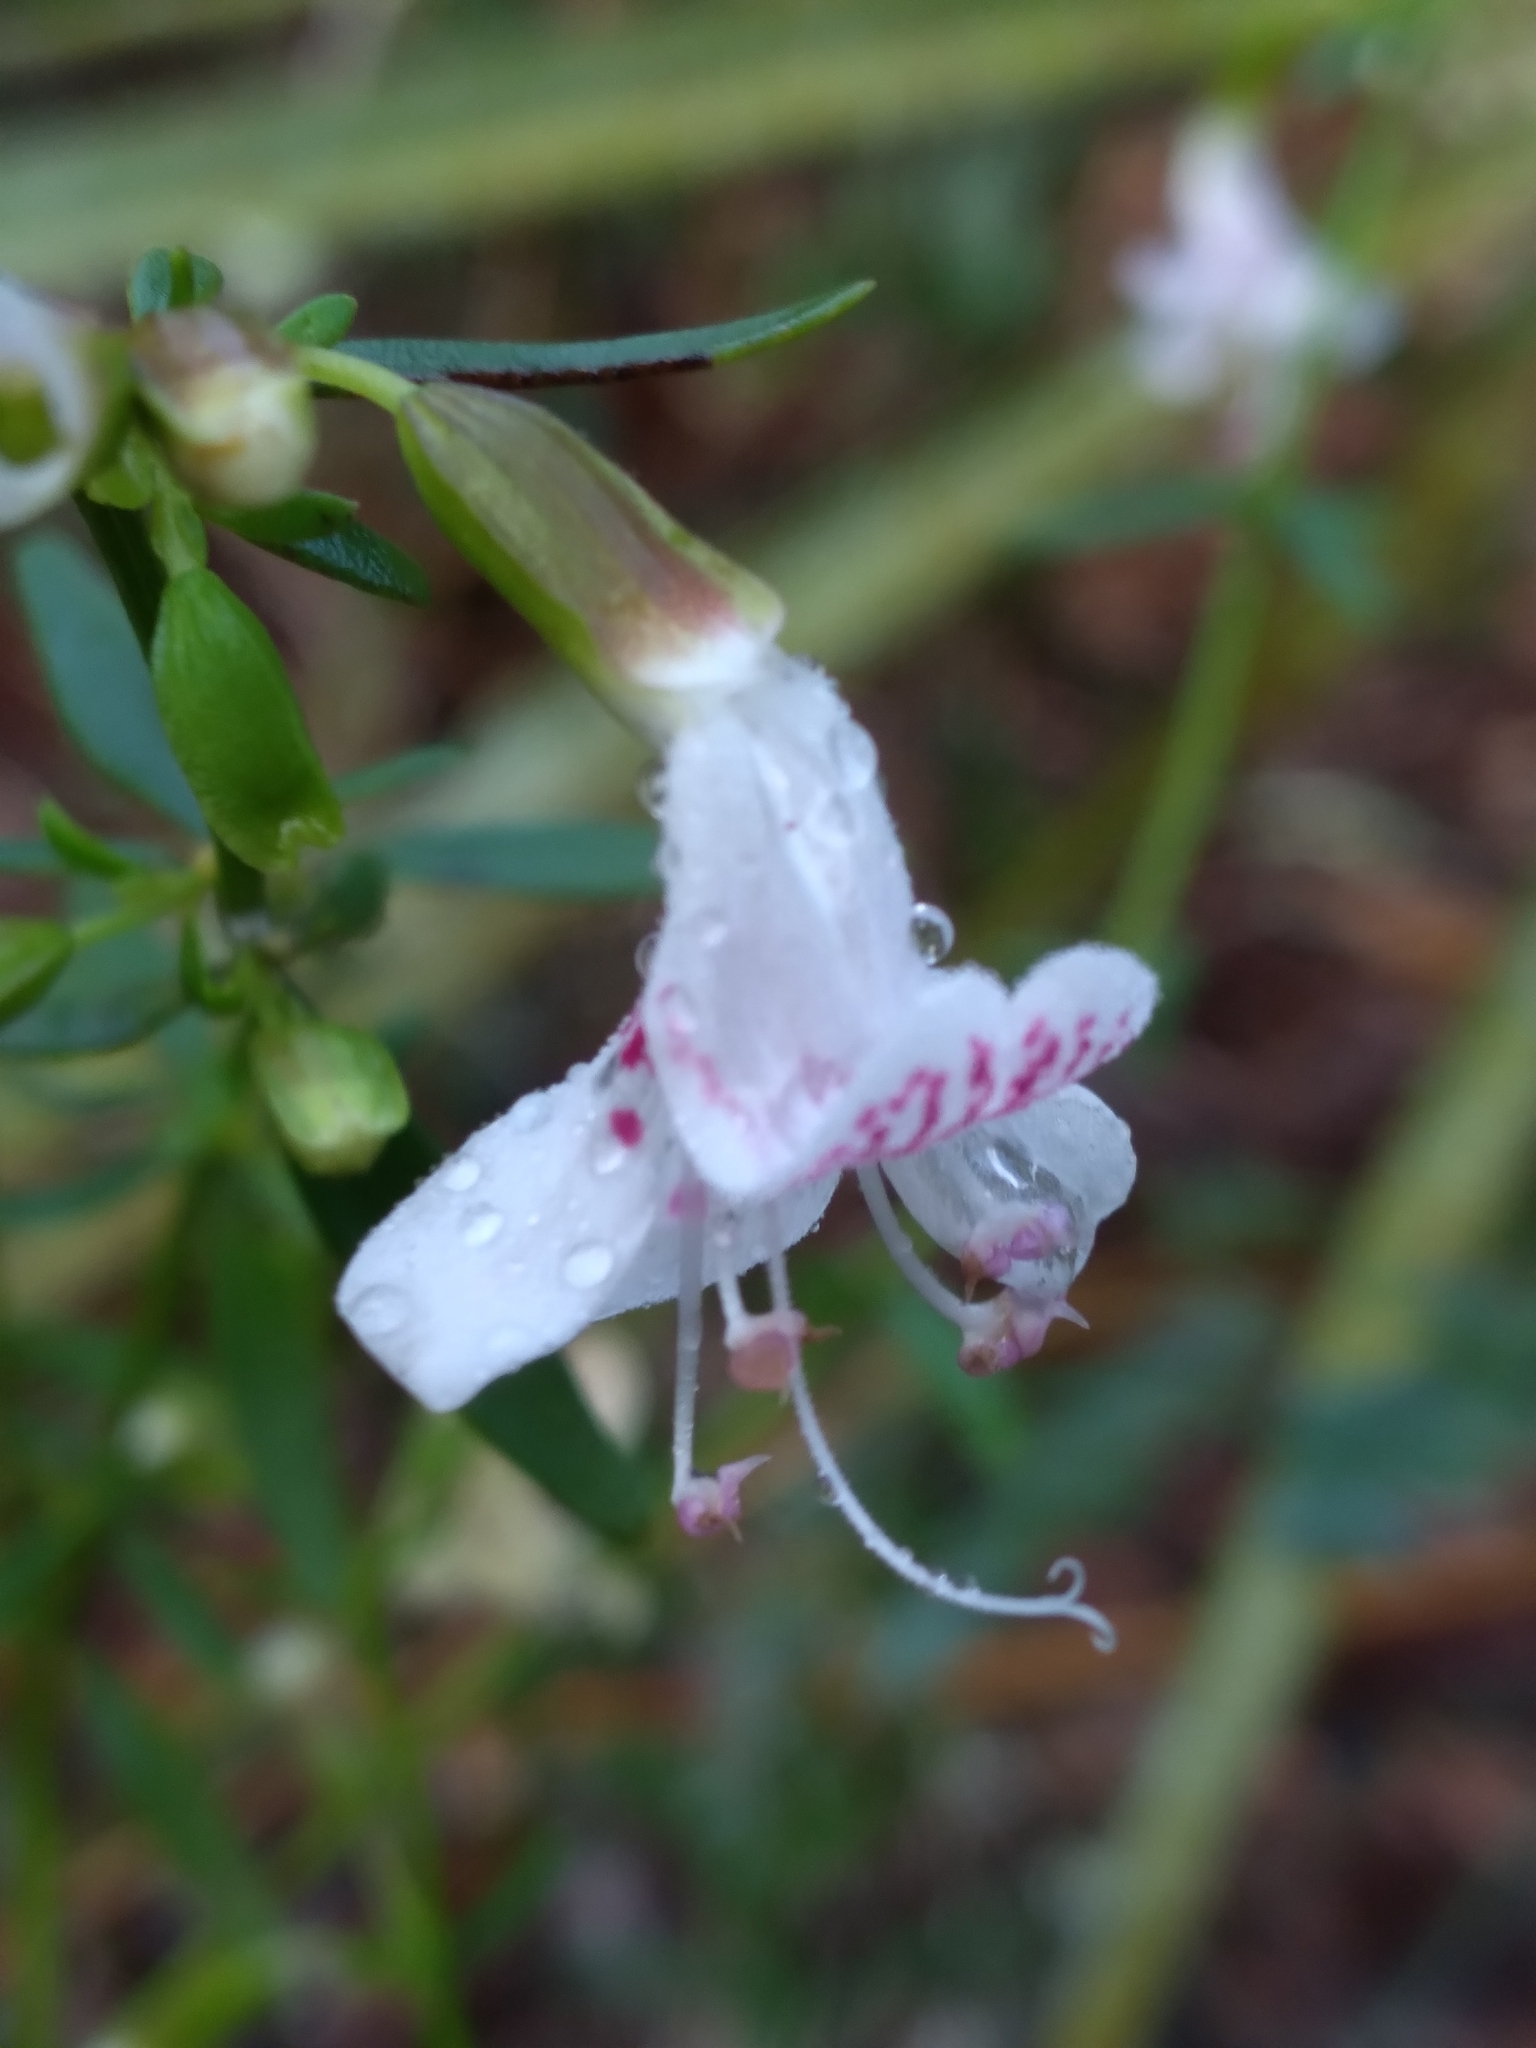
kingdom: Plantae
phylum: Tracheophyta
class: Magnoliopsida
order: Lamiales
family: Lamiaceae
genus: Dicerandra
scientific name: Dicerandra frutescens
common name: Scrub-mint
